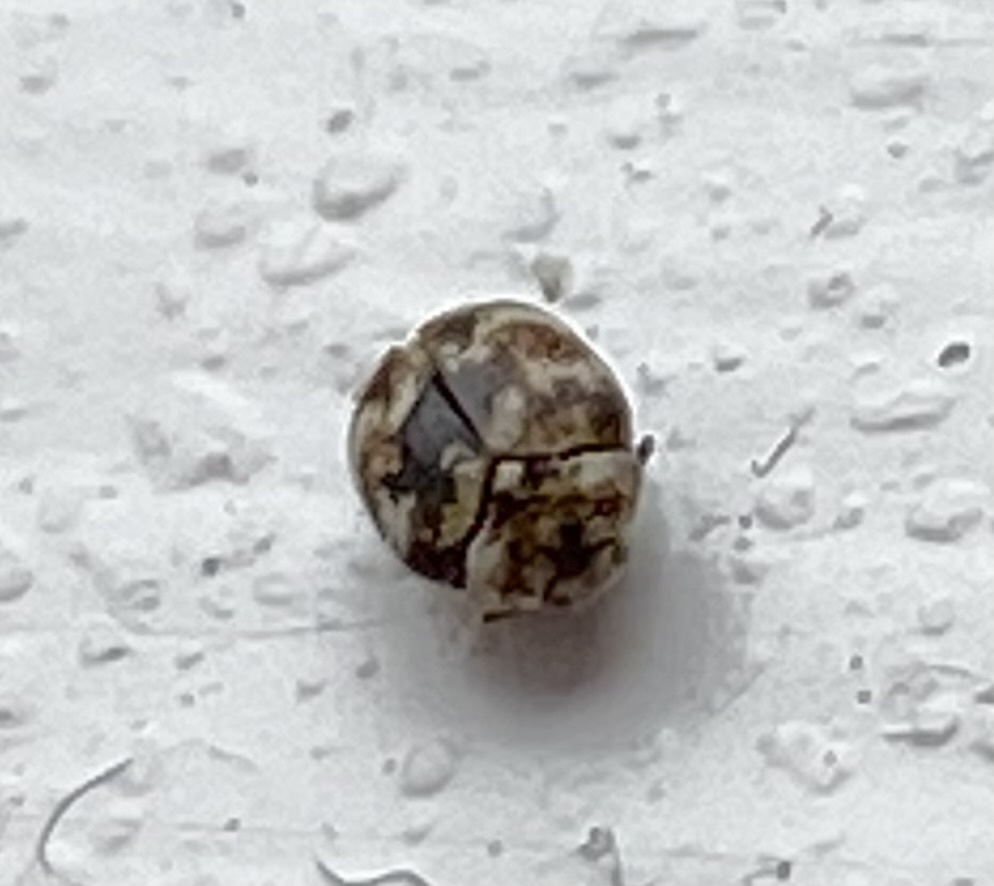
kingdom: Animalia
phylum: Arthropoda
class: Insecta
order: Coleoptera
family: Dermestidae
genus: Anthrenus
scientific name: Anthrenus verbasci
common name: Varied carpet beetle
